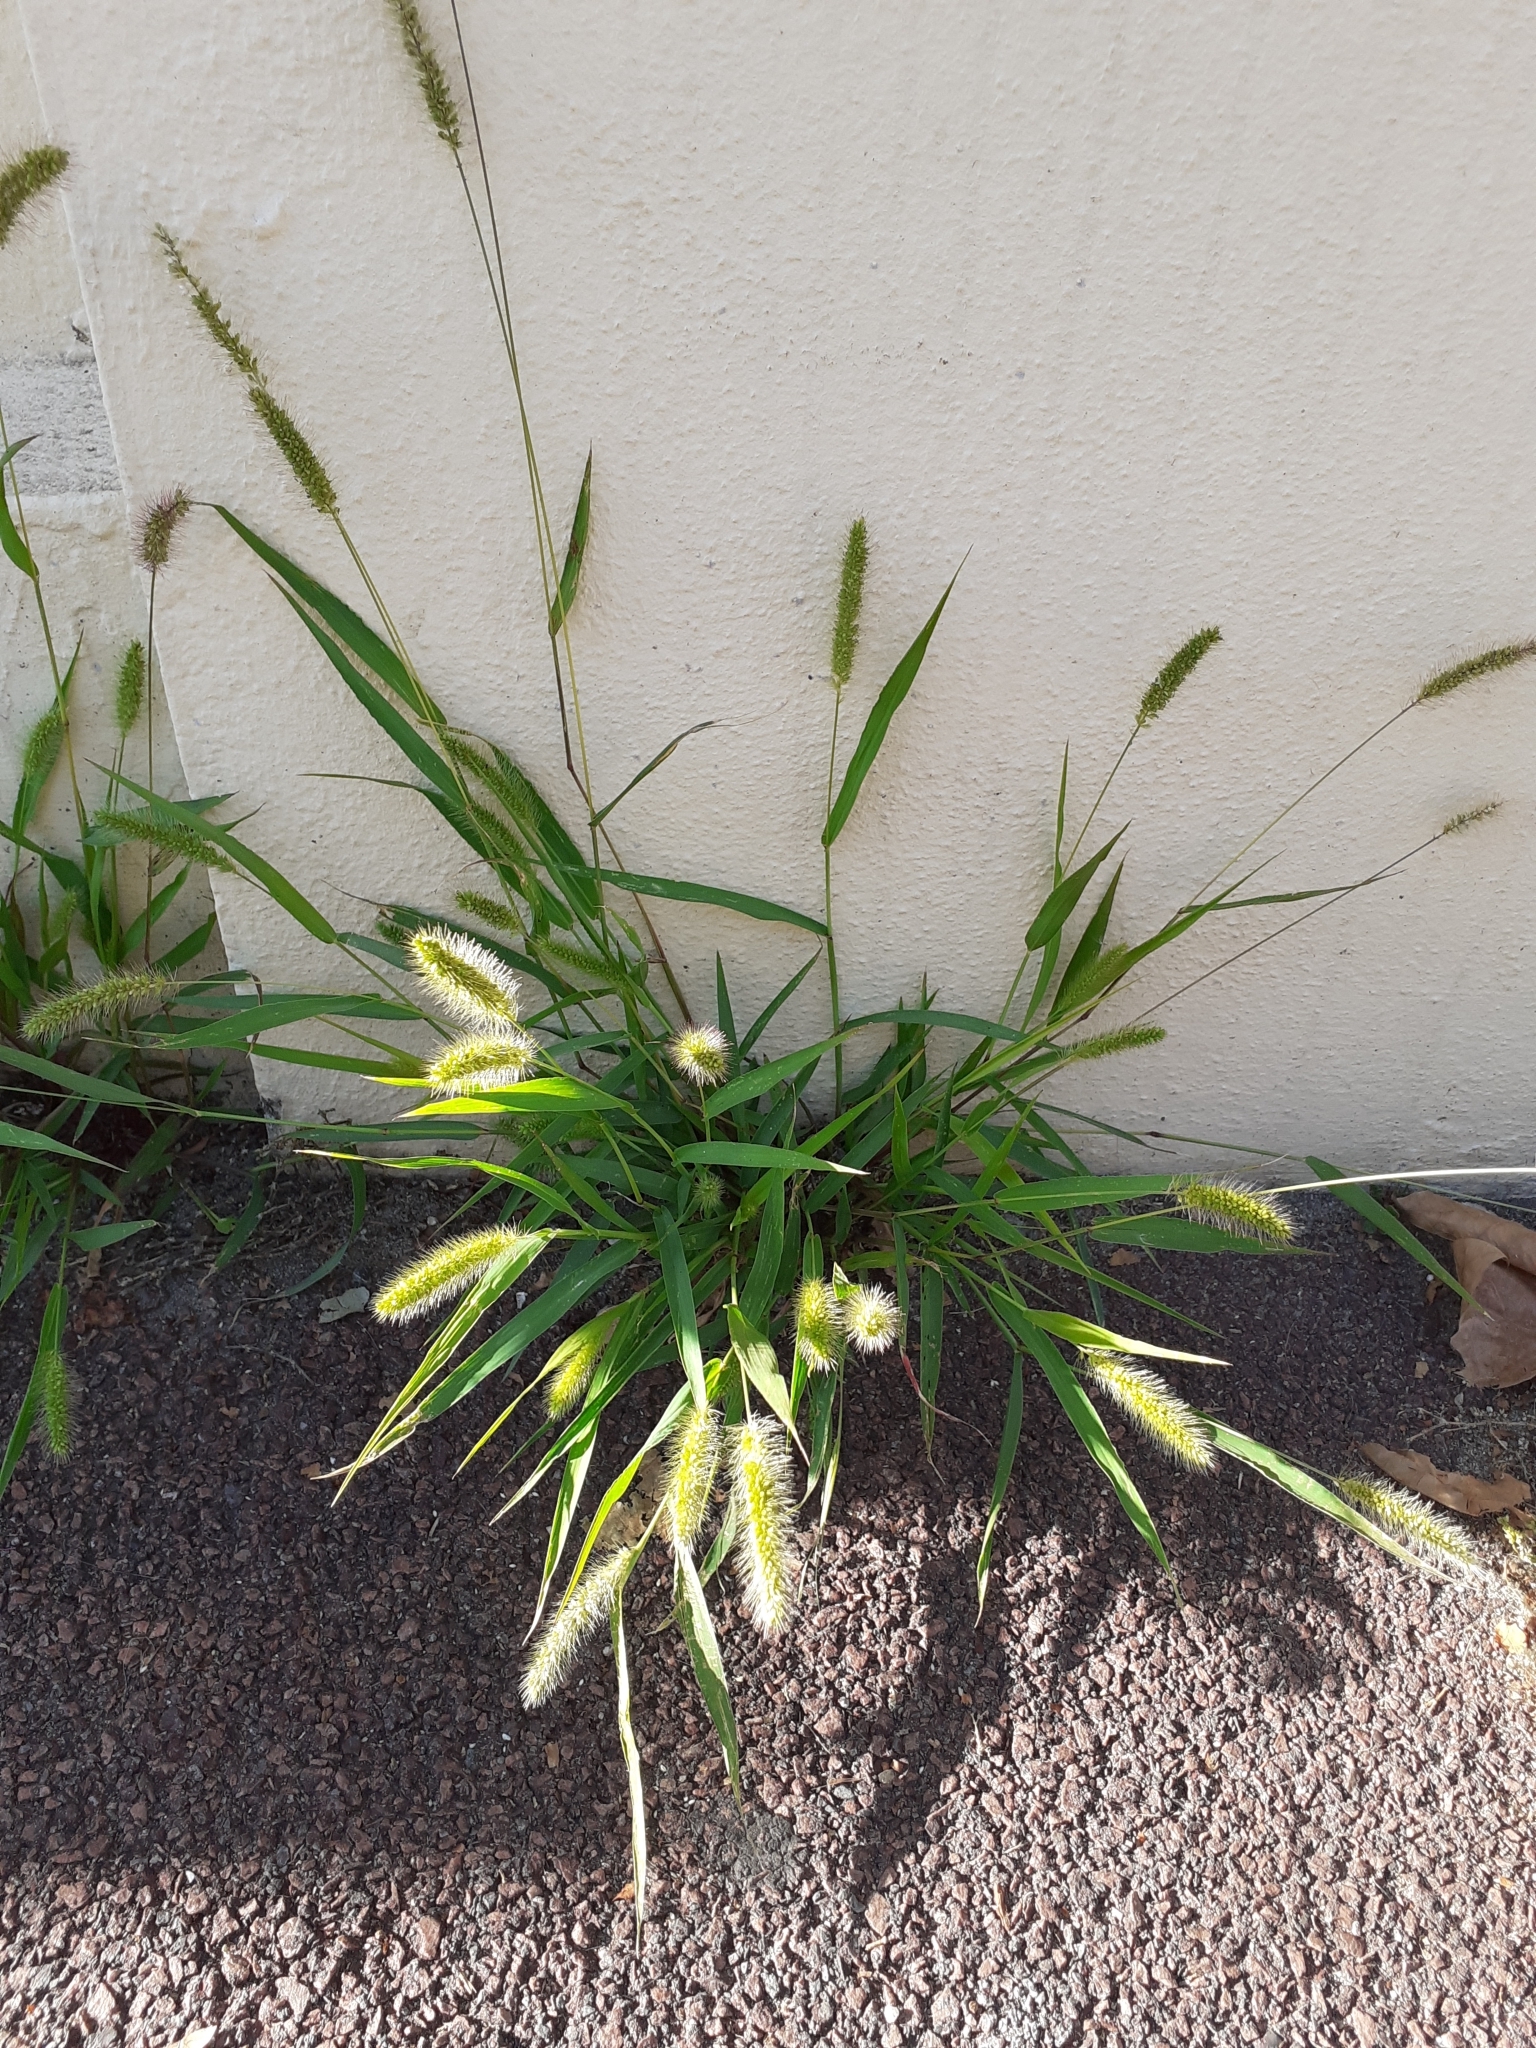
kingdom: Plantae
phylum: Tracheophyta
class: Liliopsida
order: Poales
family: Poaceae
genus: Setaria
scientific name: Setaria viridis
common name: Green bristlegrass
